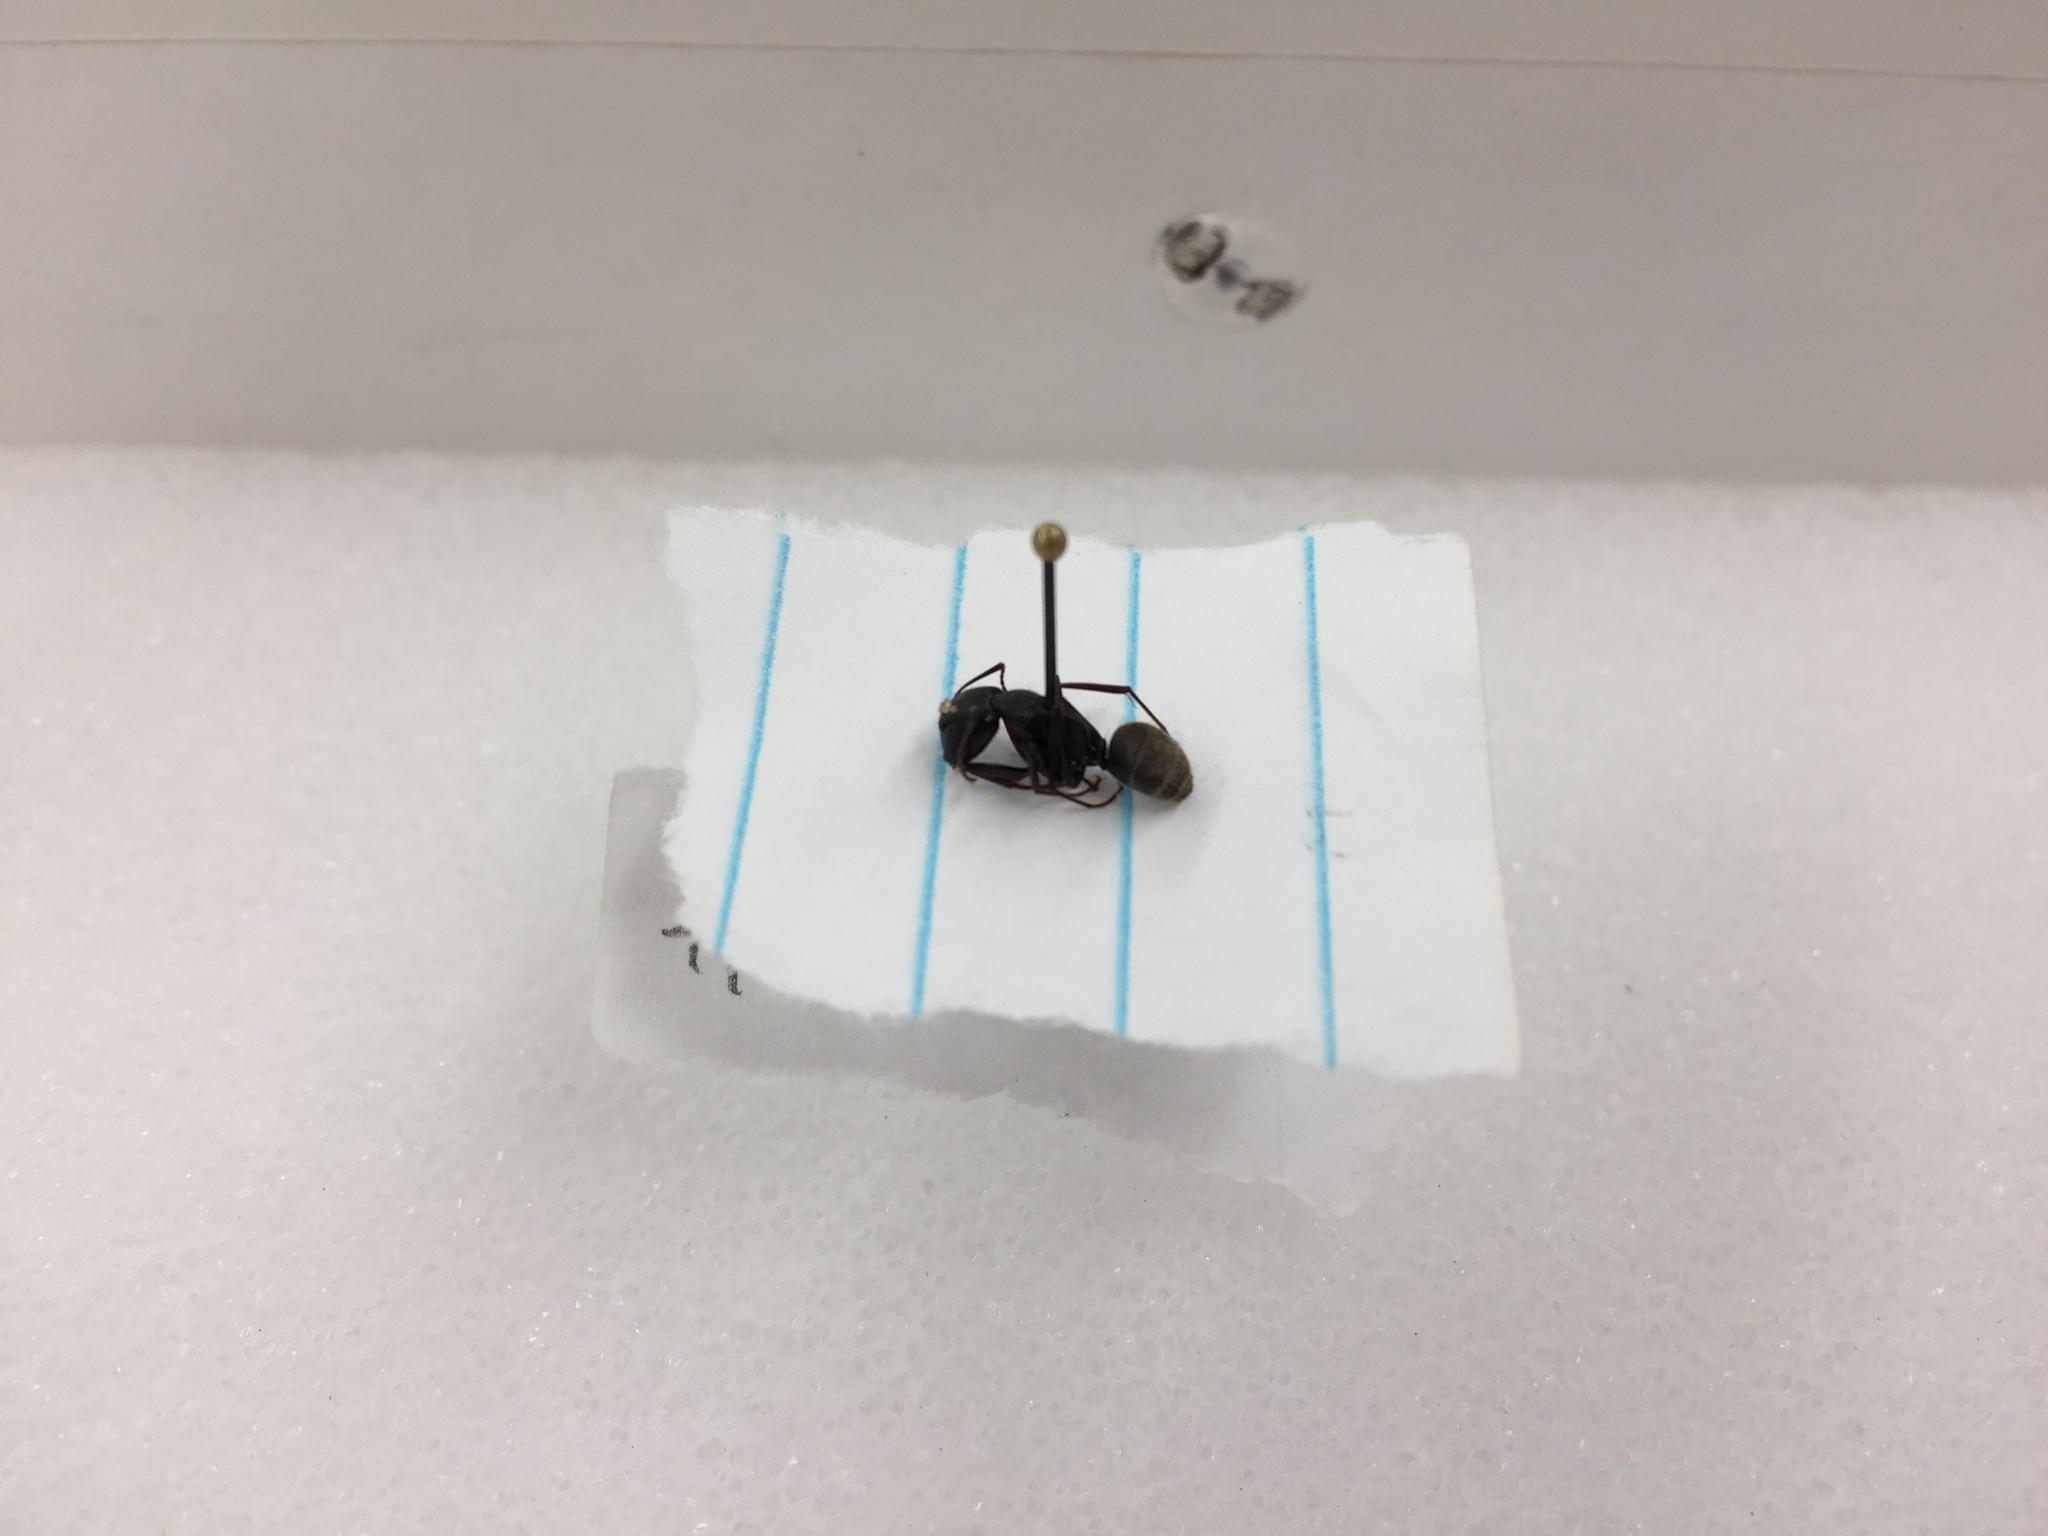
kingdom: Animalia
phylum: Arthropoda
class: Insecta
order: Hymenoptera
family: Formicidae
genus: Camponotus
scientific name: Camponotus pennsylvanicus
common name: Black carpenter ant
